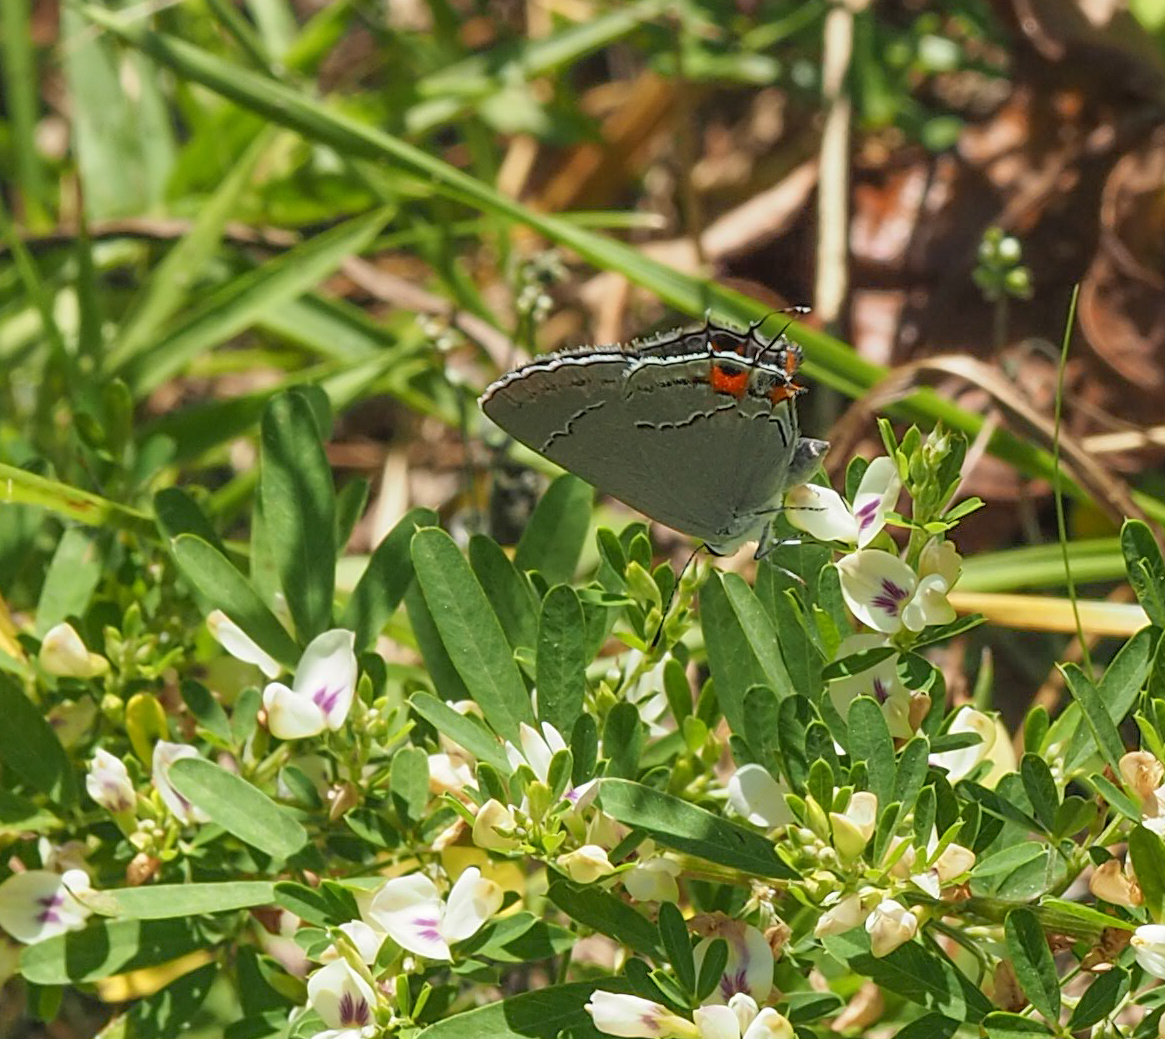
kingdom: Animalia
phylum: Arthropoda
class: Insecta
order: Lepidoptera
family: Lycaenidae
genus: Strymon
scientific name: Strymon melinus
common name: Gray hairstreak
